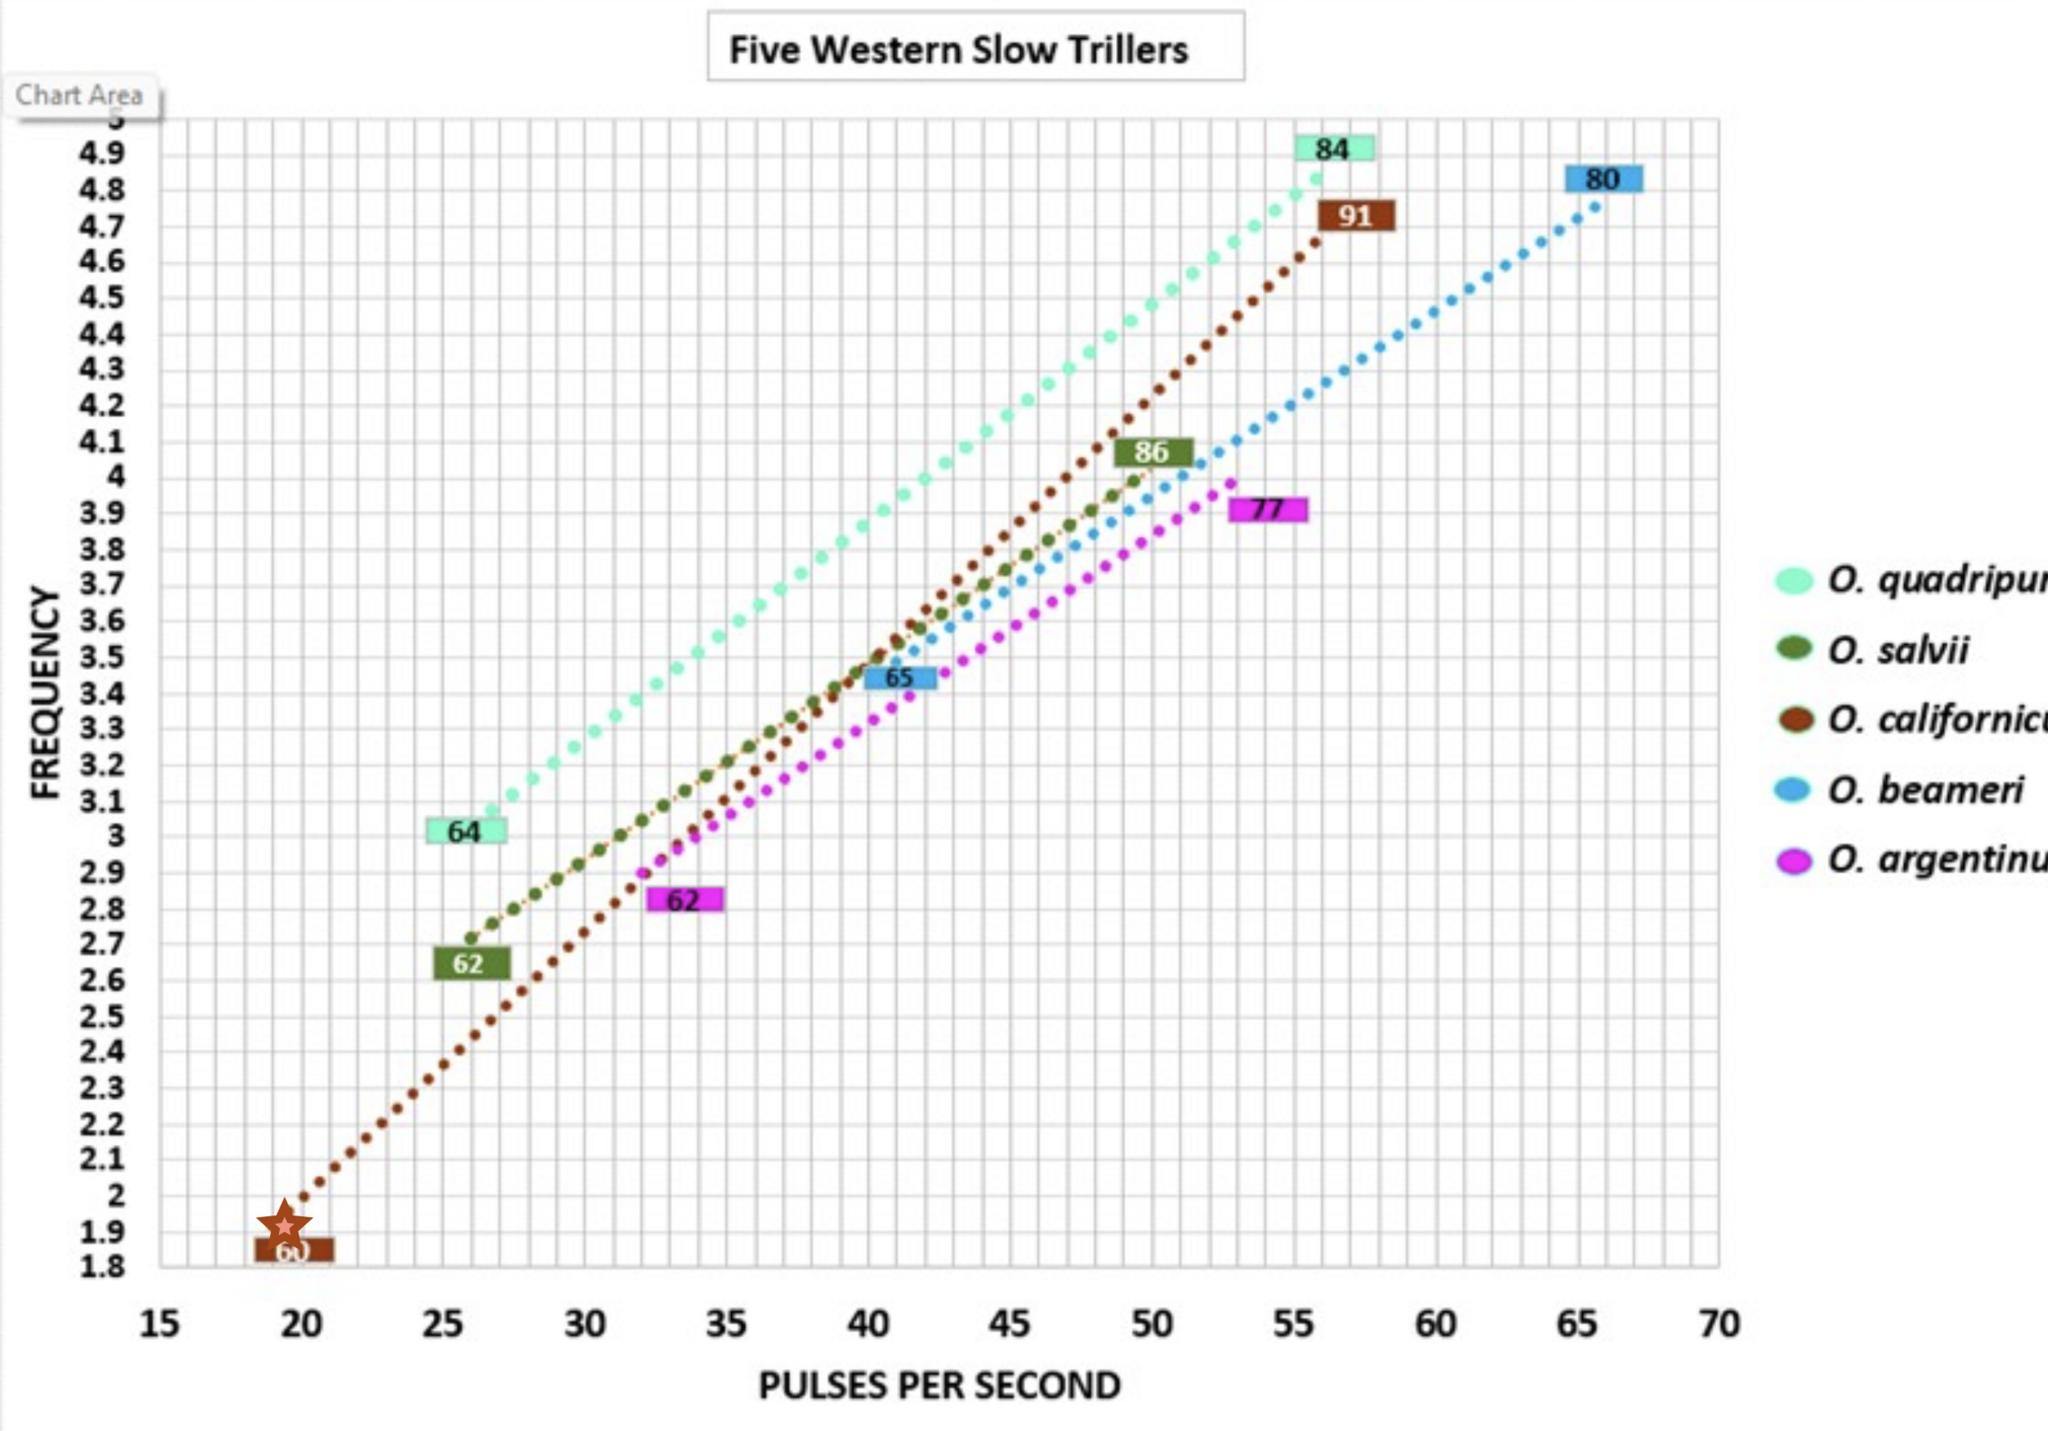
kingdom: Animalia
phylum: Arthropoda
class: Insecta
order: Orthoptera
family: Gryllidae
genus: Oecanthus
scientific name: Oecanthus californicus
